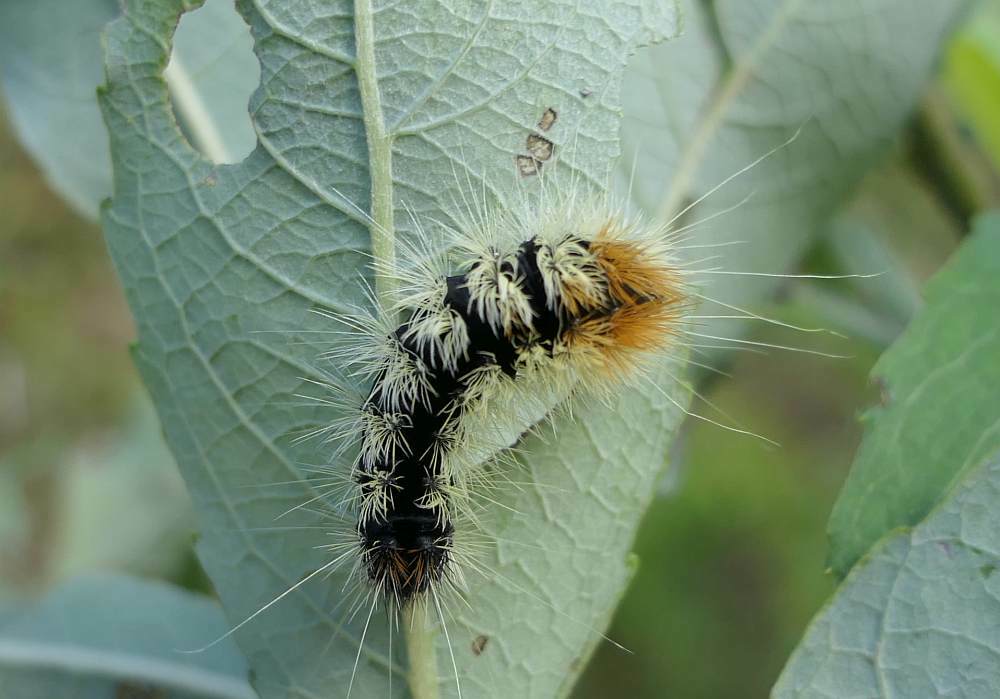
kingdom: Animalia
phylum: Arthropoda
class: Insecta
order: Lepidoptera
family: Noctuidae
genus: Acronicta
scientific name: Acronicta impressa
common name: Impressed dagger
